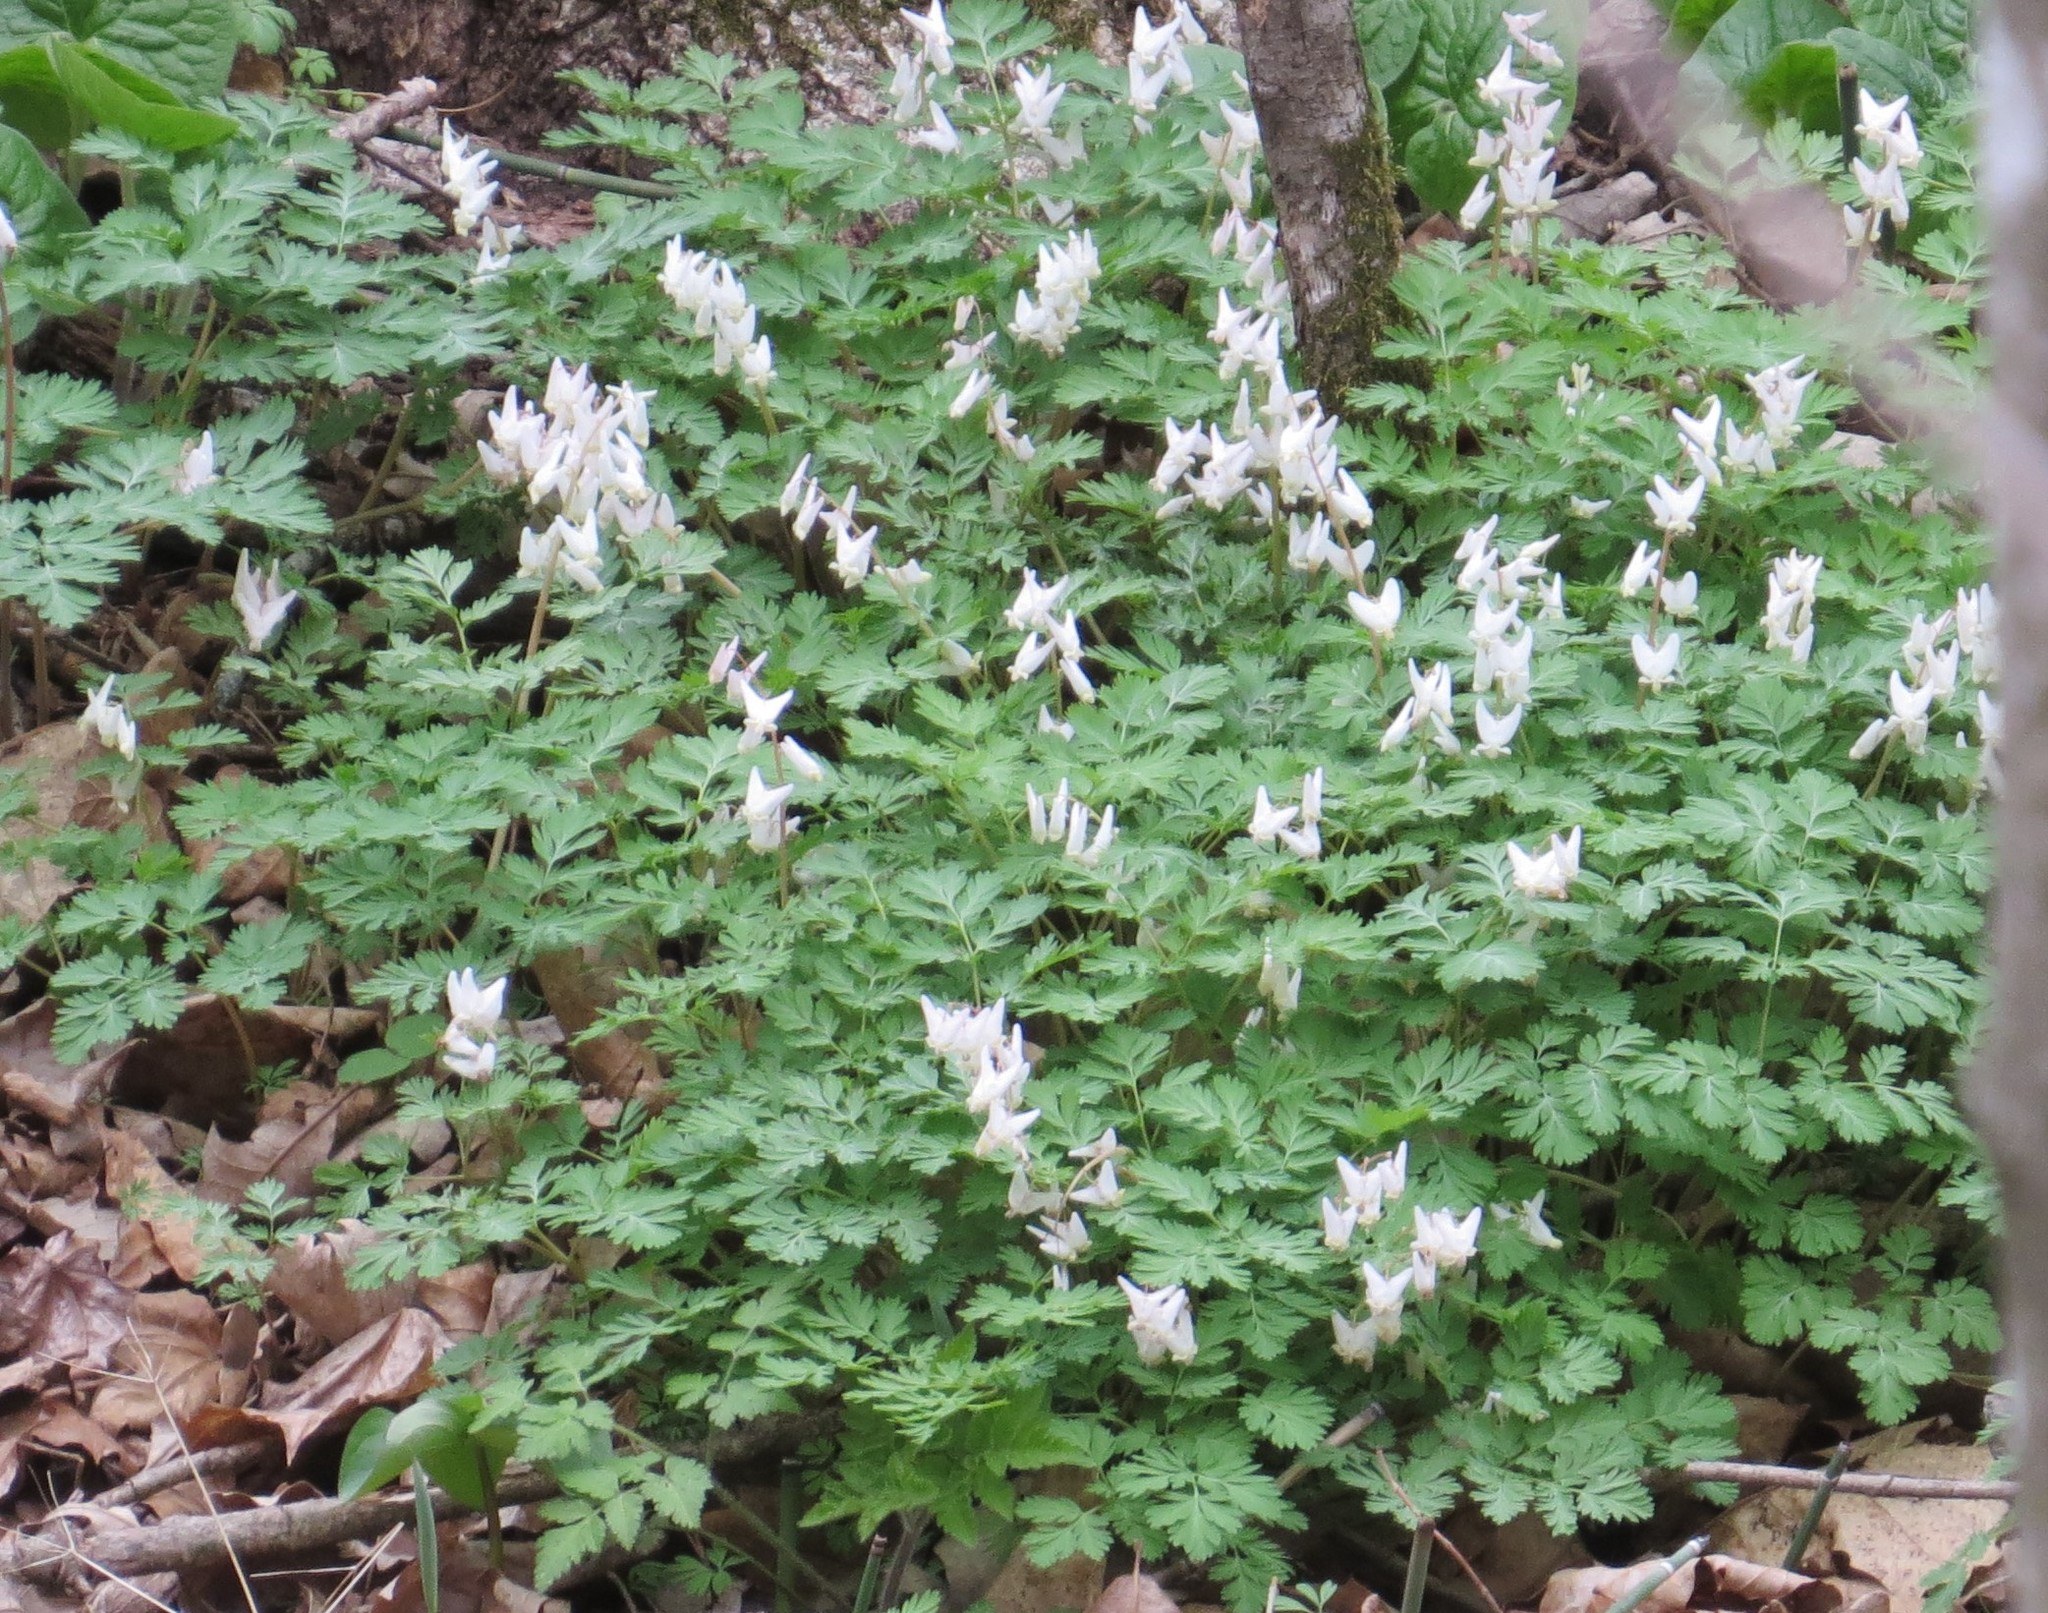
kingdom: Plantae
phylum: Tracheophyta
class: Magnoliopsida
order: Ranunculales
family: Papaveraceae
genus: Dicentra
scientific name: Dicentra cucullaria
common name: Dutchman's breeches
